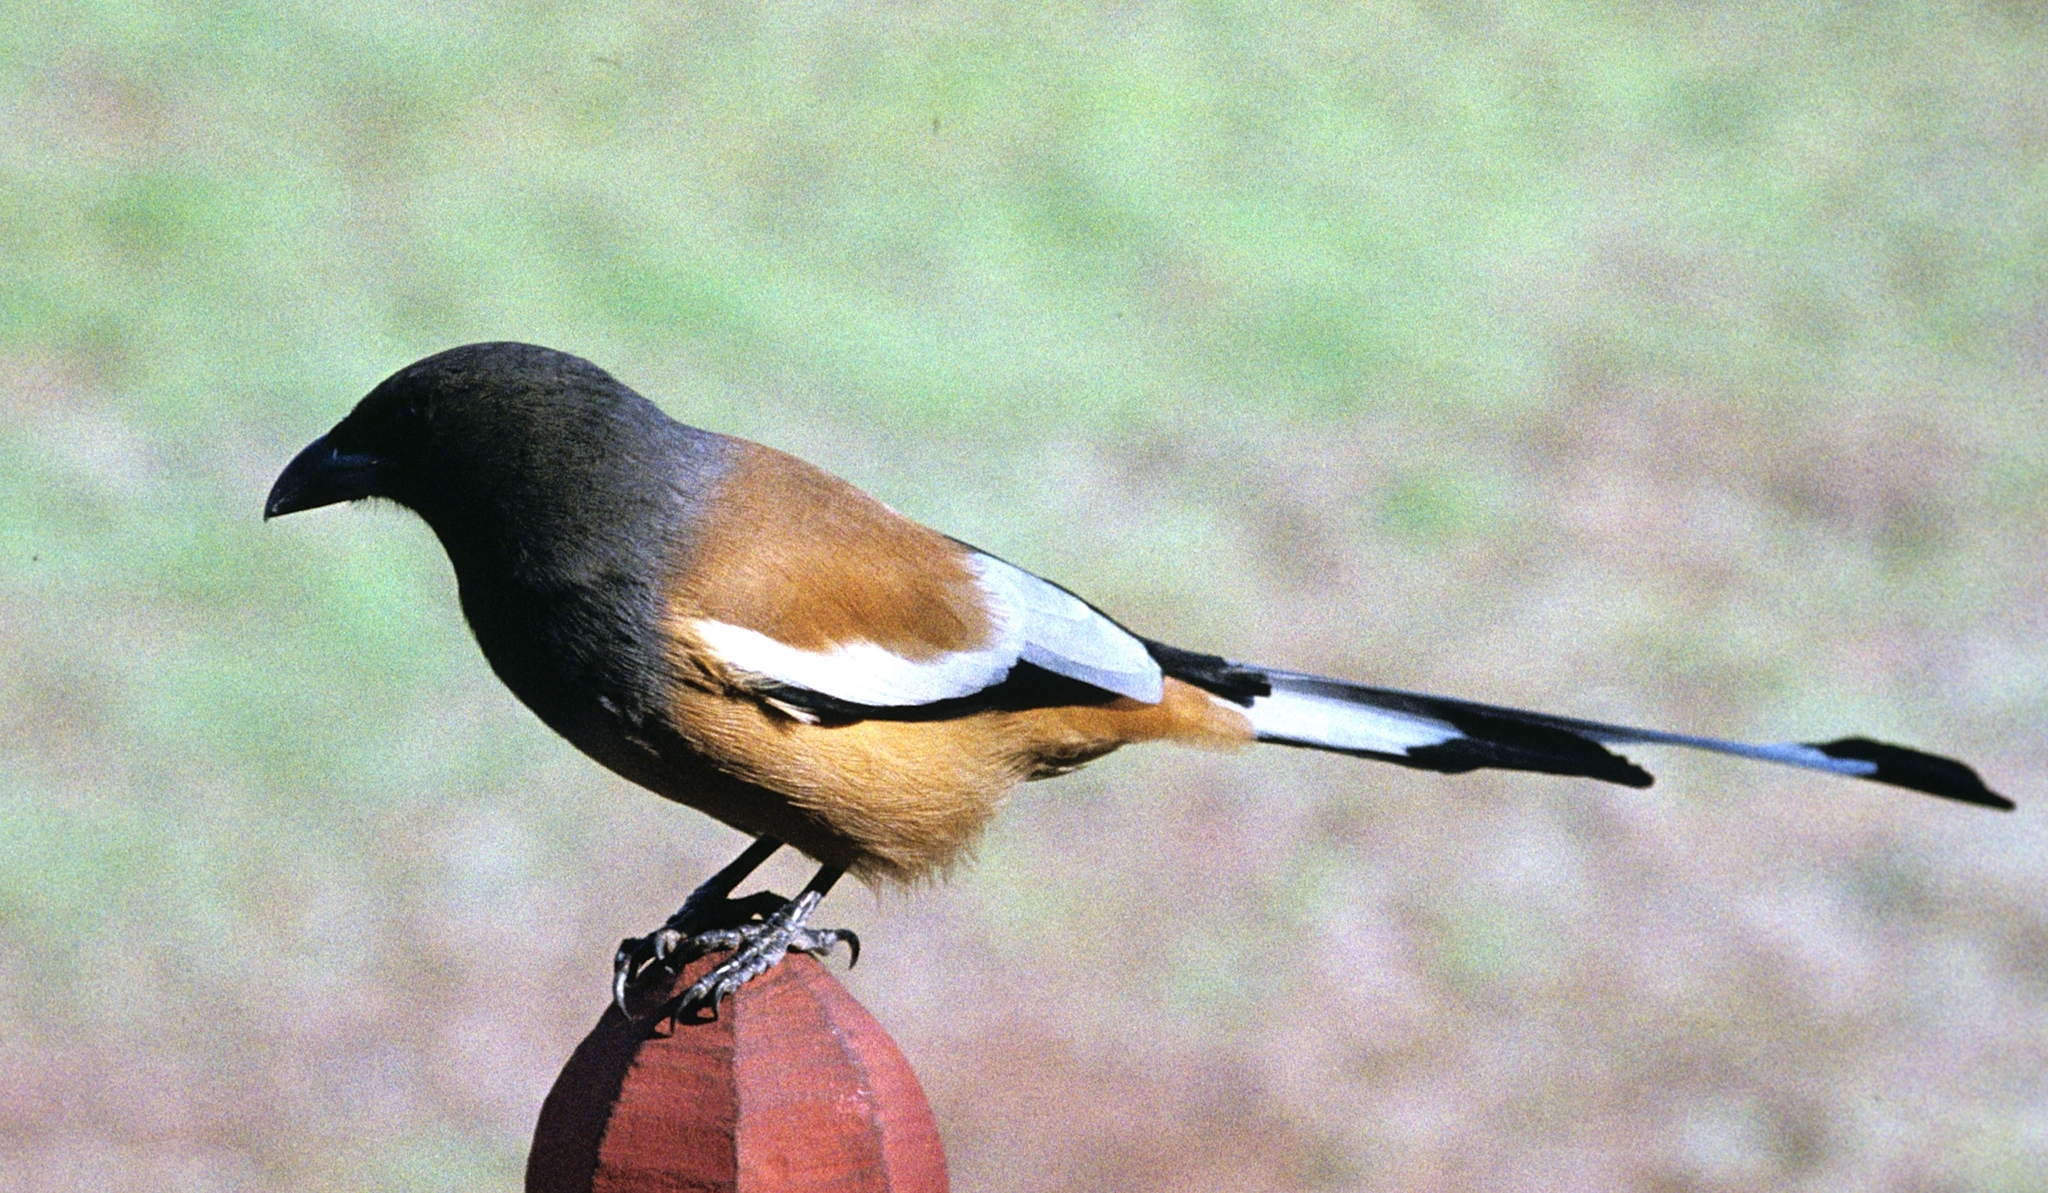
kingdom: Animalia
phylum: Chordata
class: Aves
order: Passeriformes
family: Corvidae
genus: Dendrocitta
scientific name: Dendrocitta vagabunda
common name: Rufous treepie
